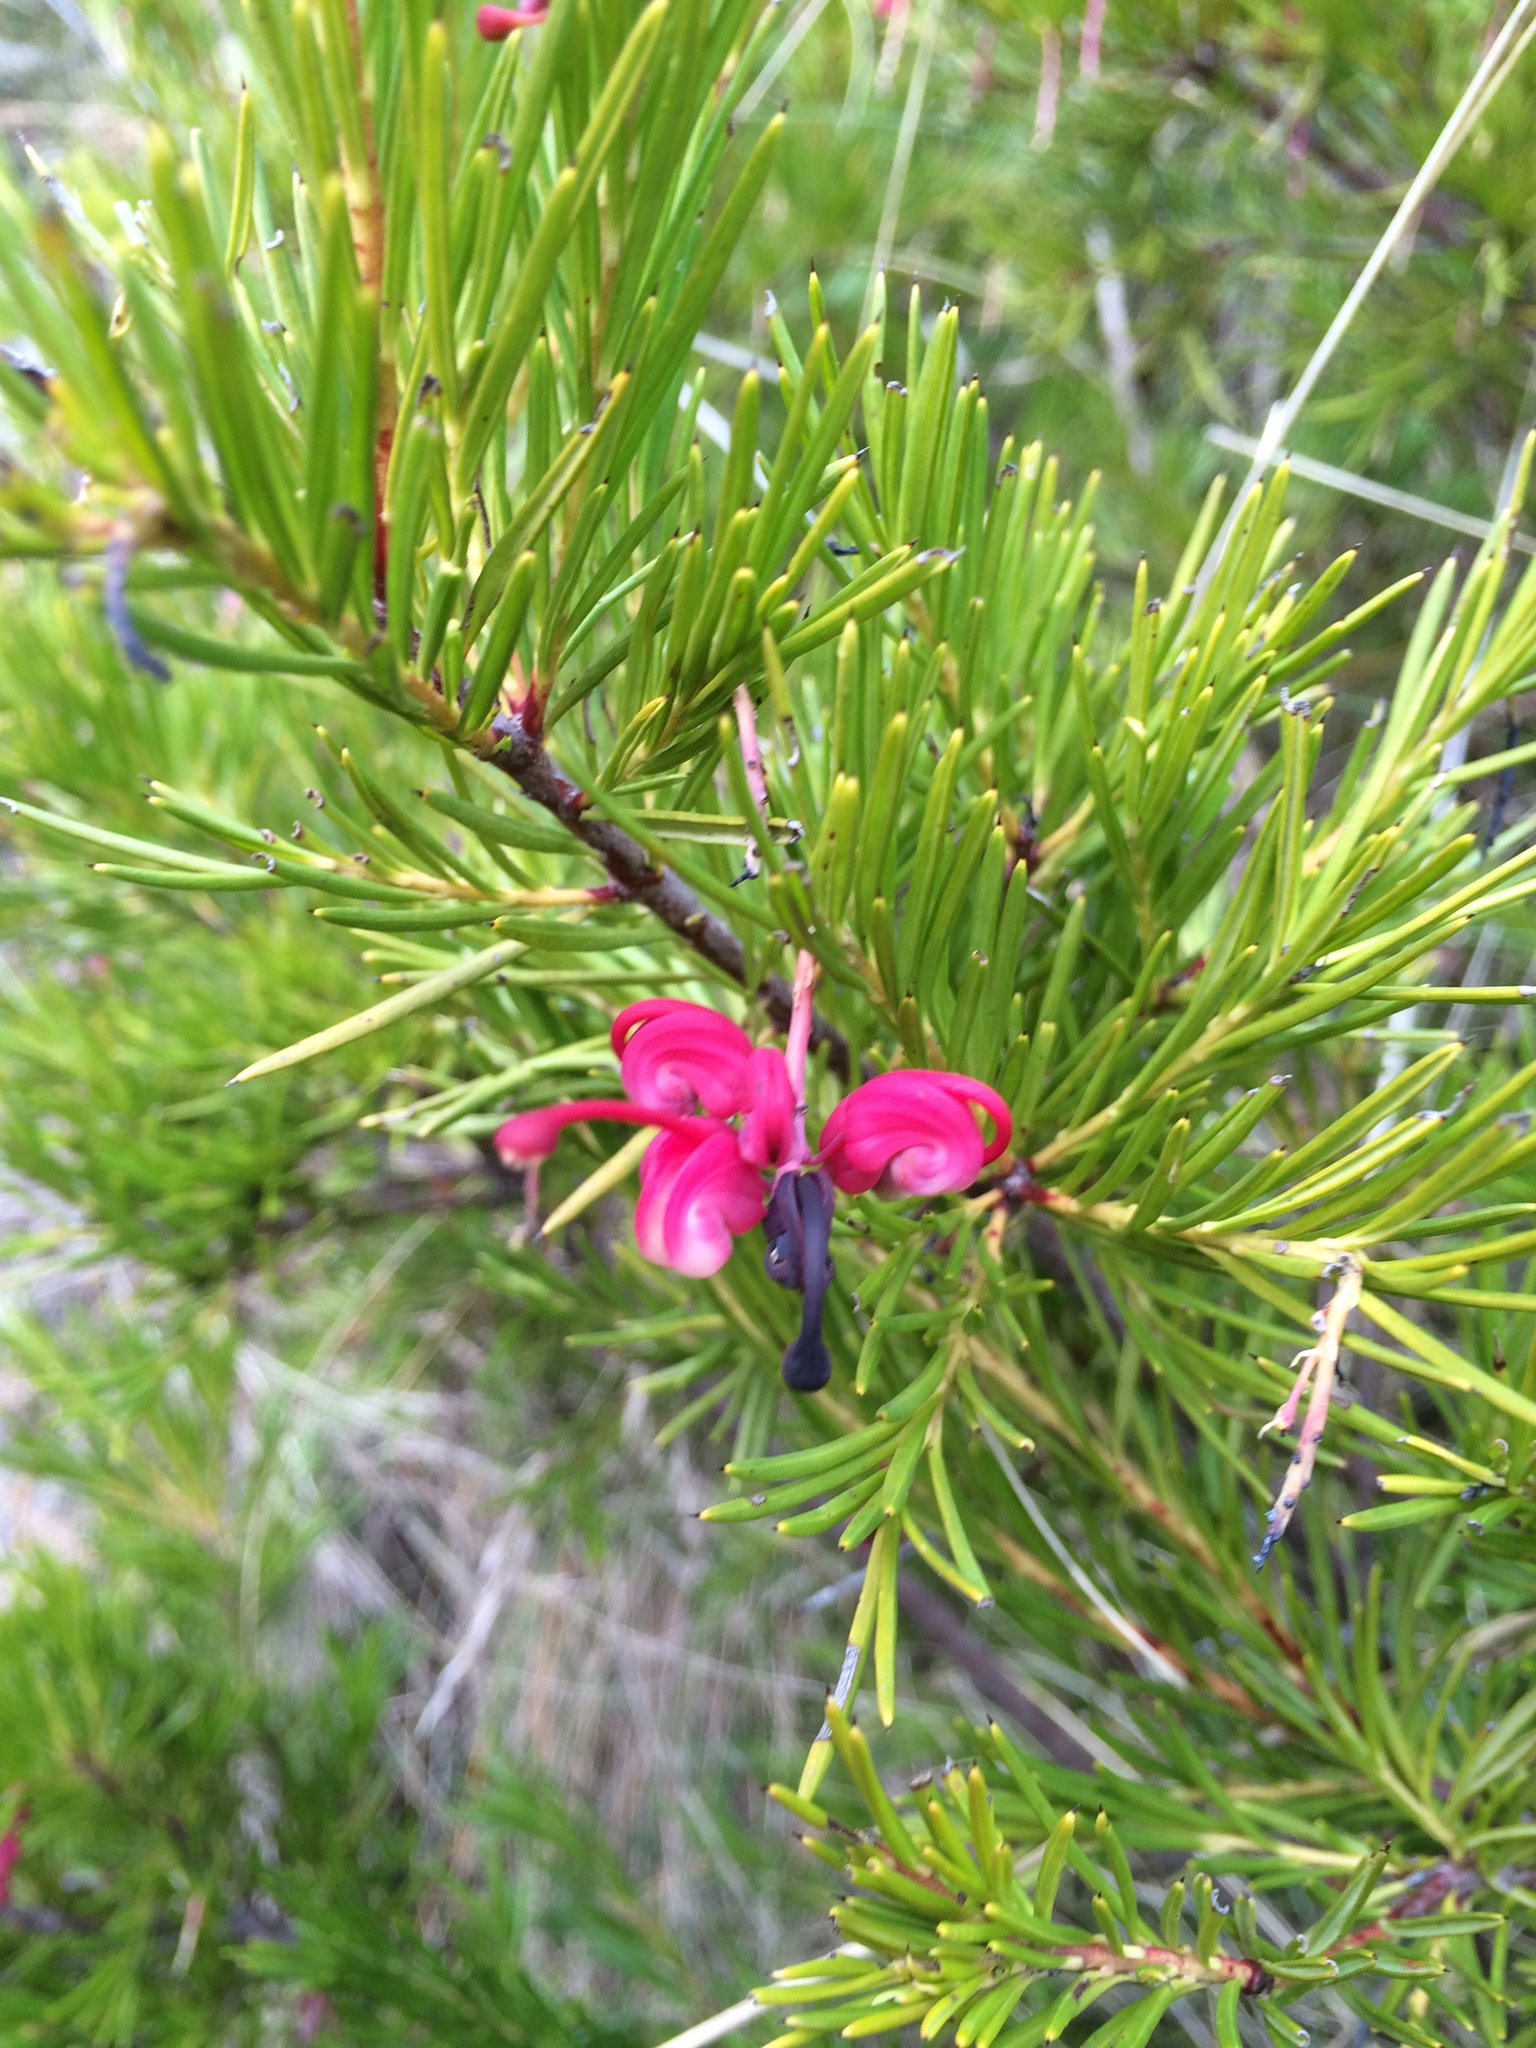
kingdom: Plantae
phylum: Tracheophyta
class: Magnoliopsida
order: Proteales
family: Proteaceae
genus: Grevillea
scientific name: Grevillea rosmarinifolia
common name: Rosemary grevillea
